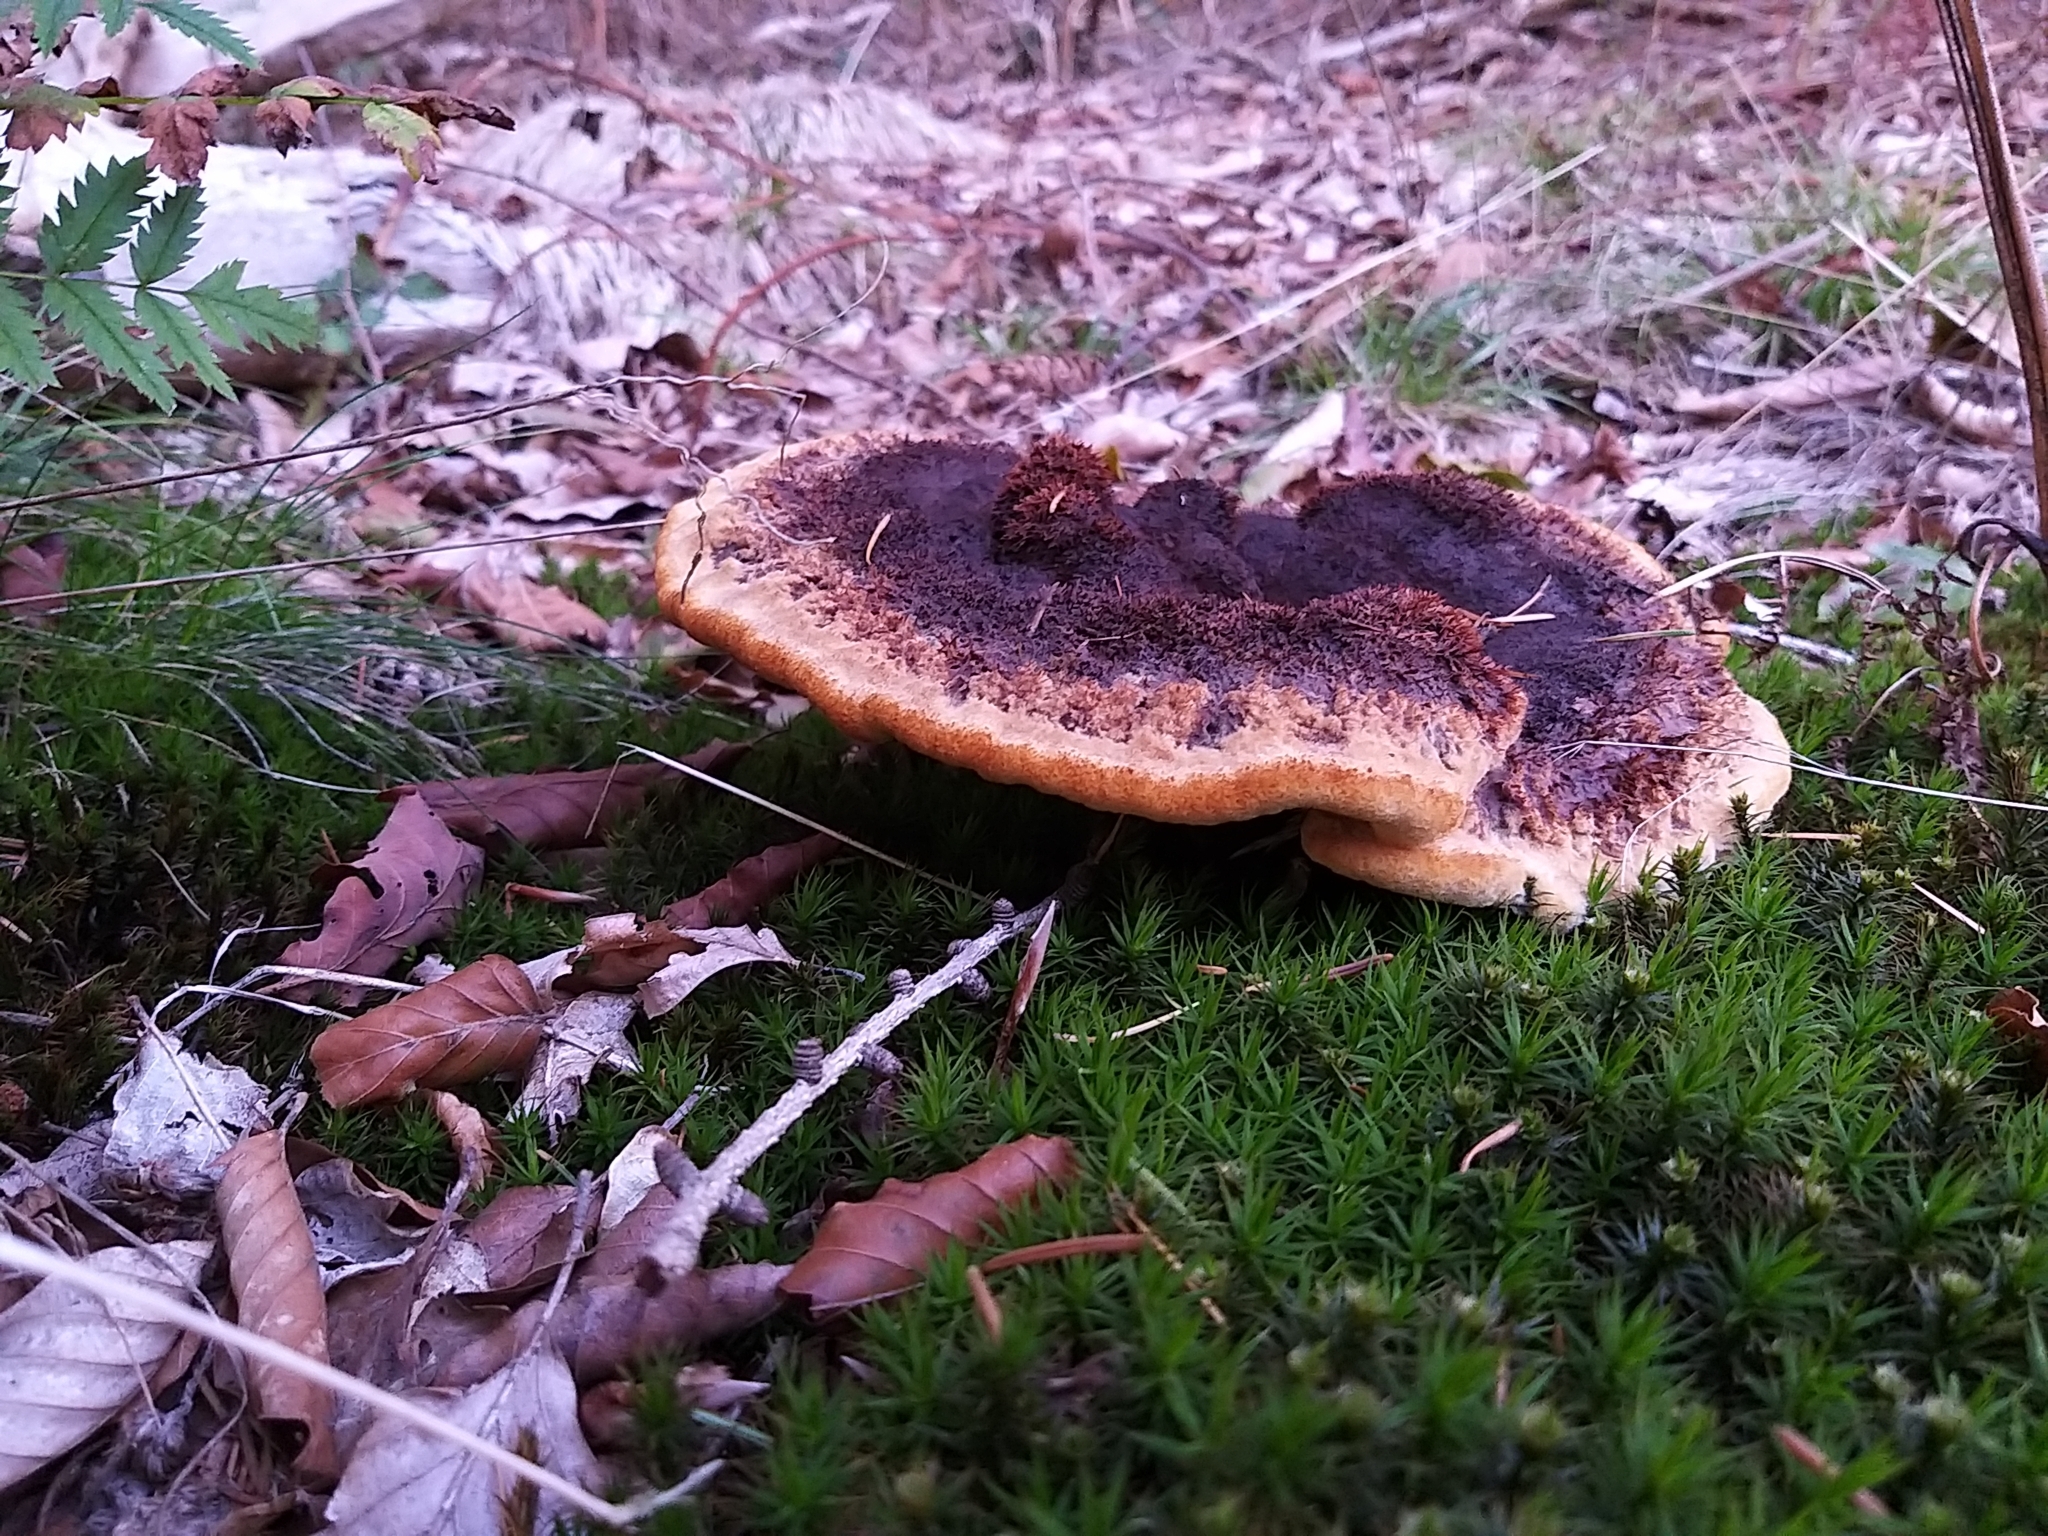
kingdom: Fungi
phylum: Basidiomycota
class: Agaricomycetes
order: Polyporales
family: Laetiporaceae
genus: Phaeolus
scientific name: Phaeolus schweinitzii
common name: Dyer's mazegill
